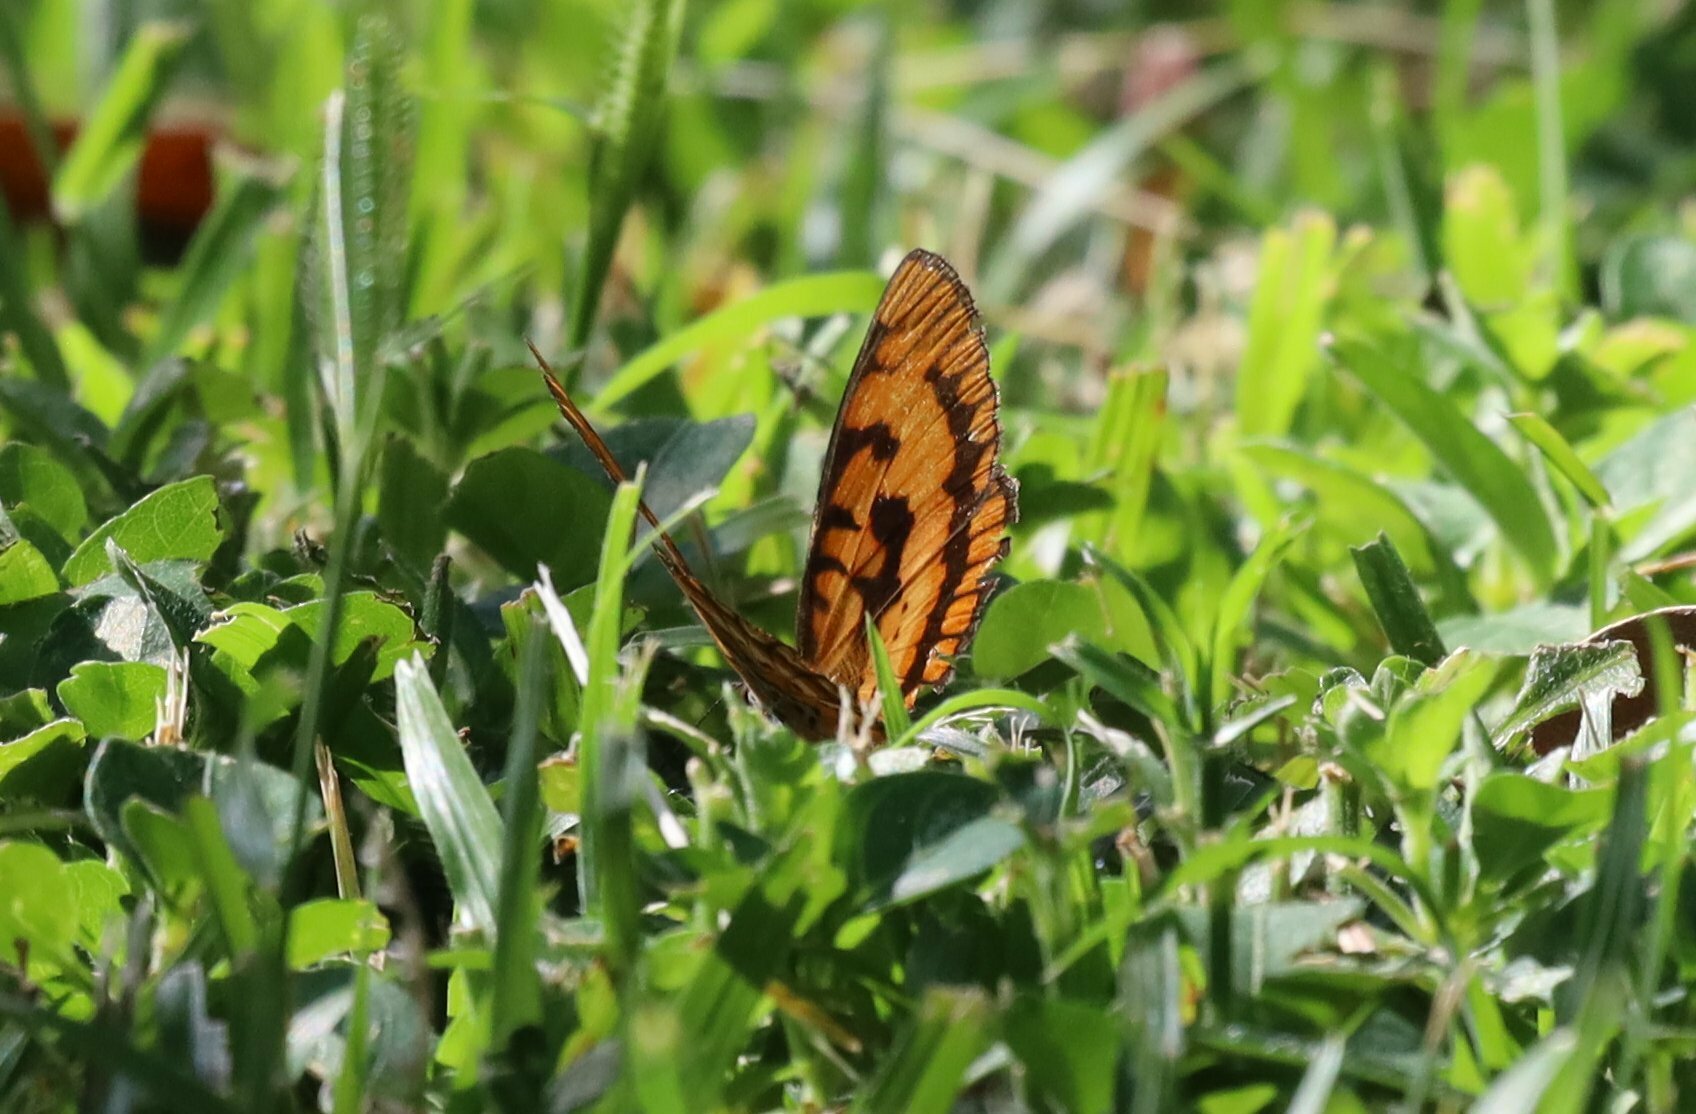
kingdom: Animalia
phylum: Arthropoda
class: Insecta
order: Lepidoptera
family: Nymphalidae
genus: Byblia
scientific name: Byblia ilithyia
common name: Spotted joker
